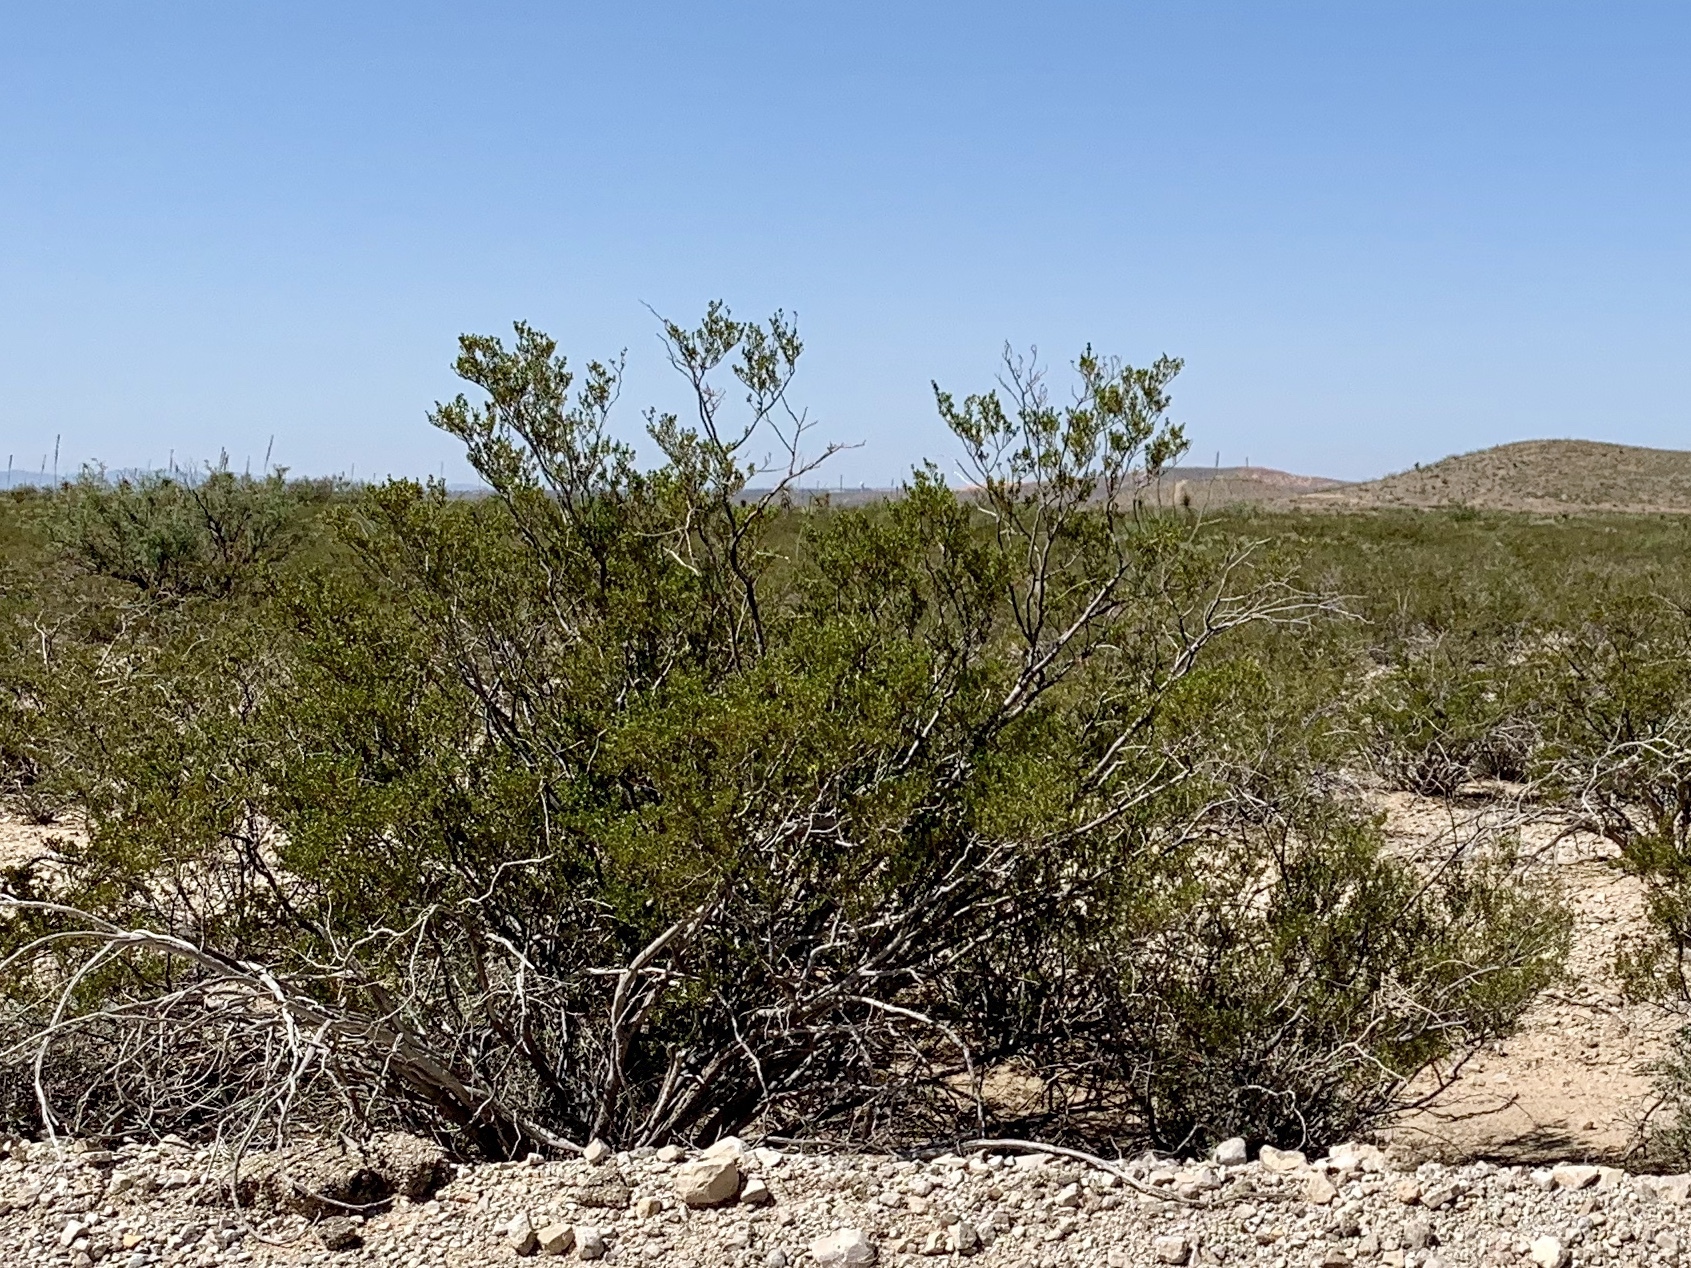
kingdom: Plantae
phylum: Tracheophyta
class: Magnoliopsida
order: Zygophyllales
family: Zygophyllaceae
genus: Larrea
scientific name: Larrea tridentata
